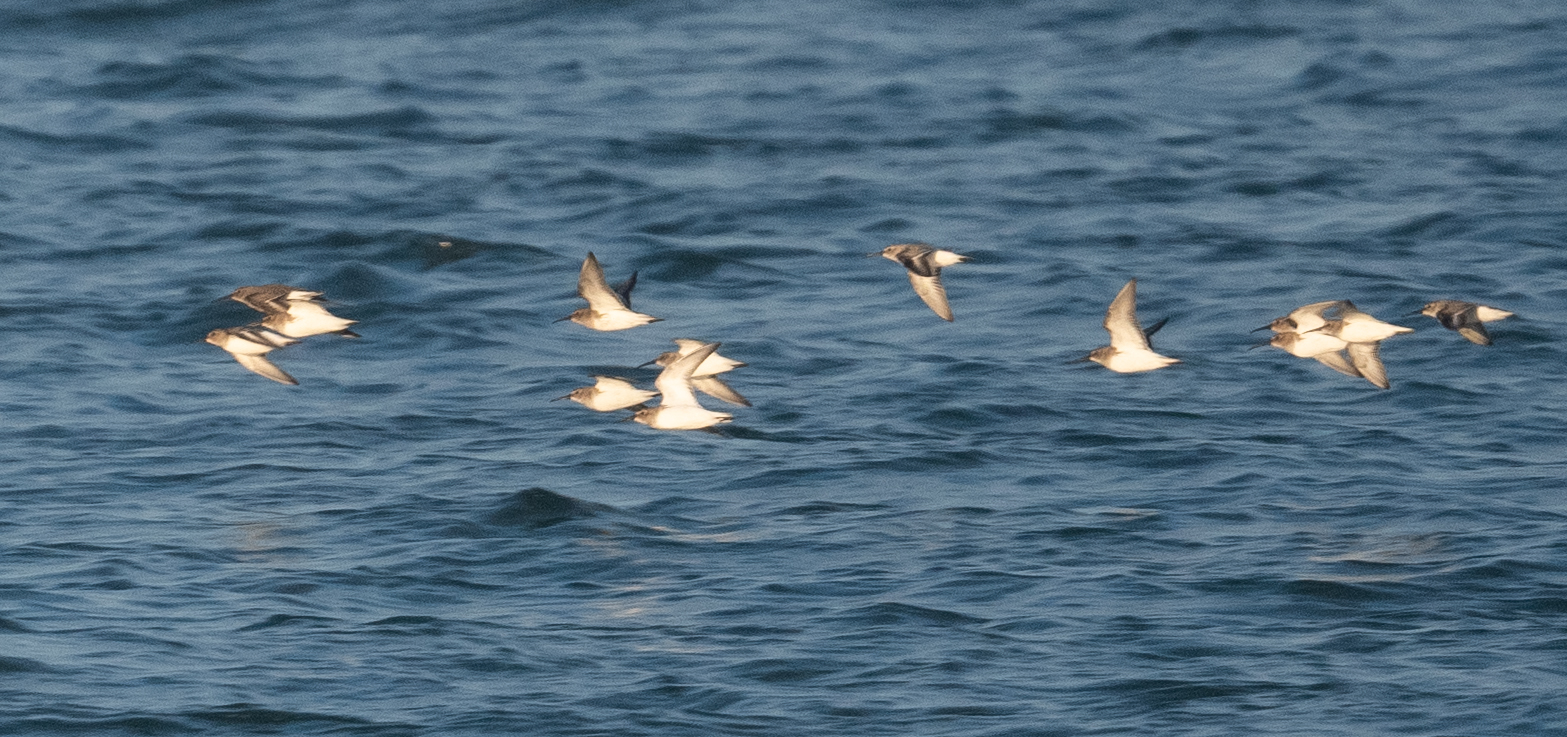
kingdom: Animalia
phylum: Chordata
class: Aves
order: Charadriiformes
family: Scolopacidae
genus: Calidris
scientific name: Calidris alpina
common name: Dunlin
